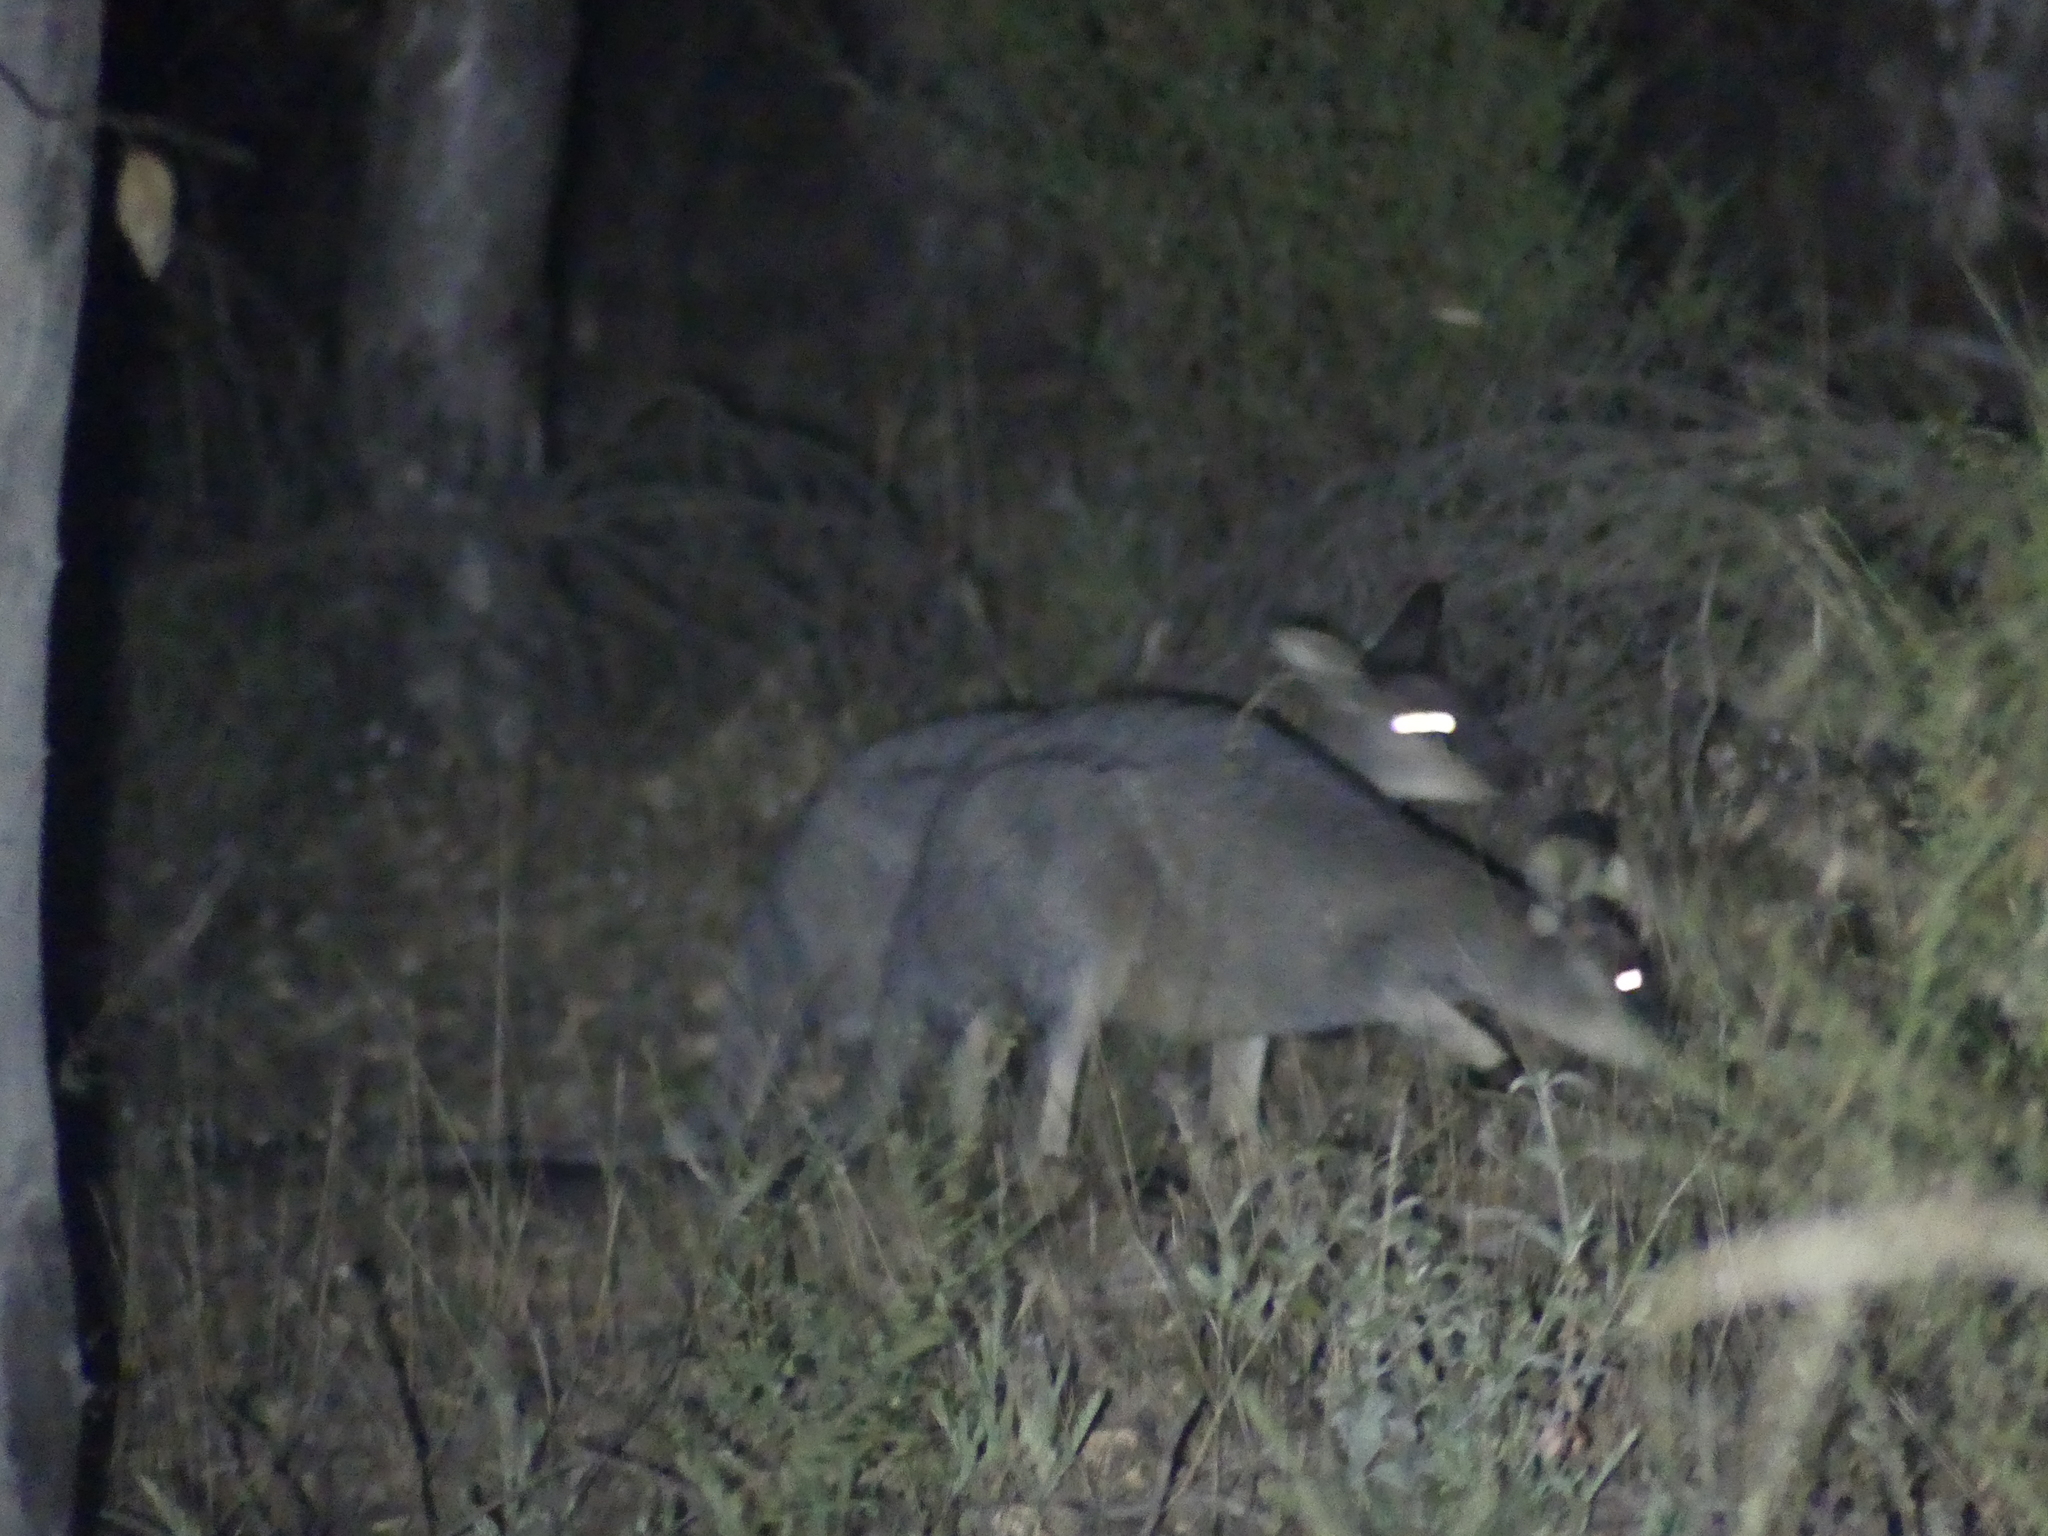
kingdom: Animalia
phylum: Chordata
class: Mammalia
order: Diprotodontia
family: Macropodidae
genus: Macropus
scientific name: Macropus eugenii
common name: Tammar wallaby
